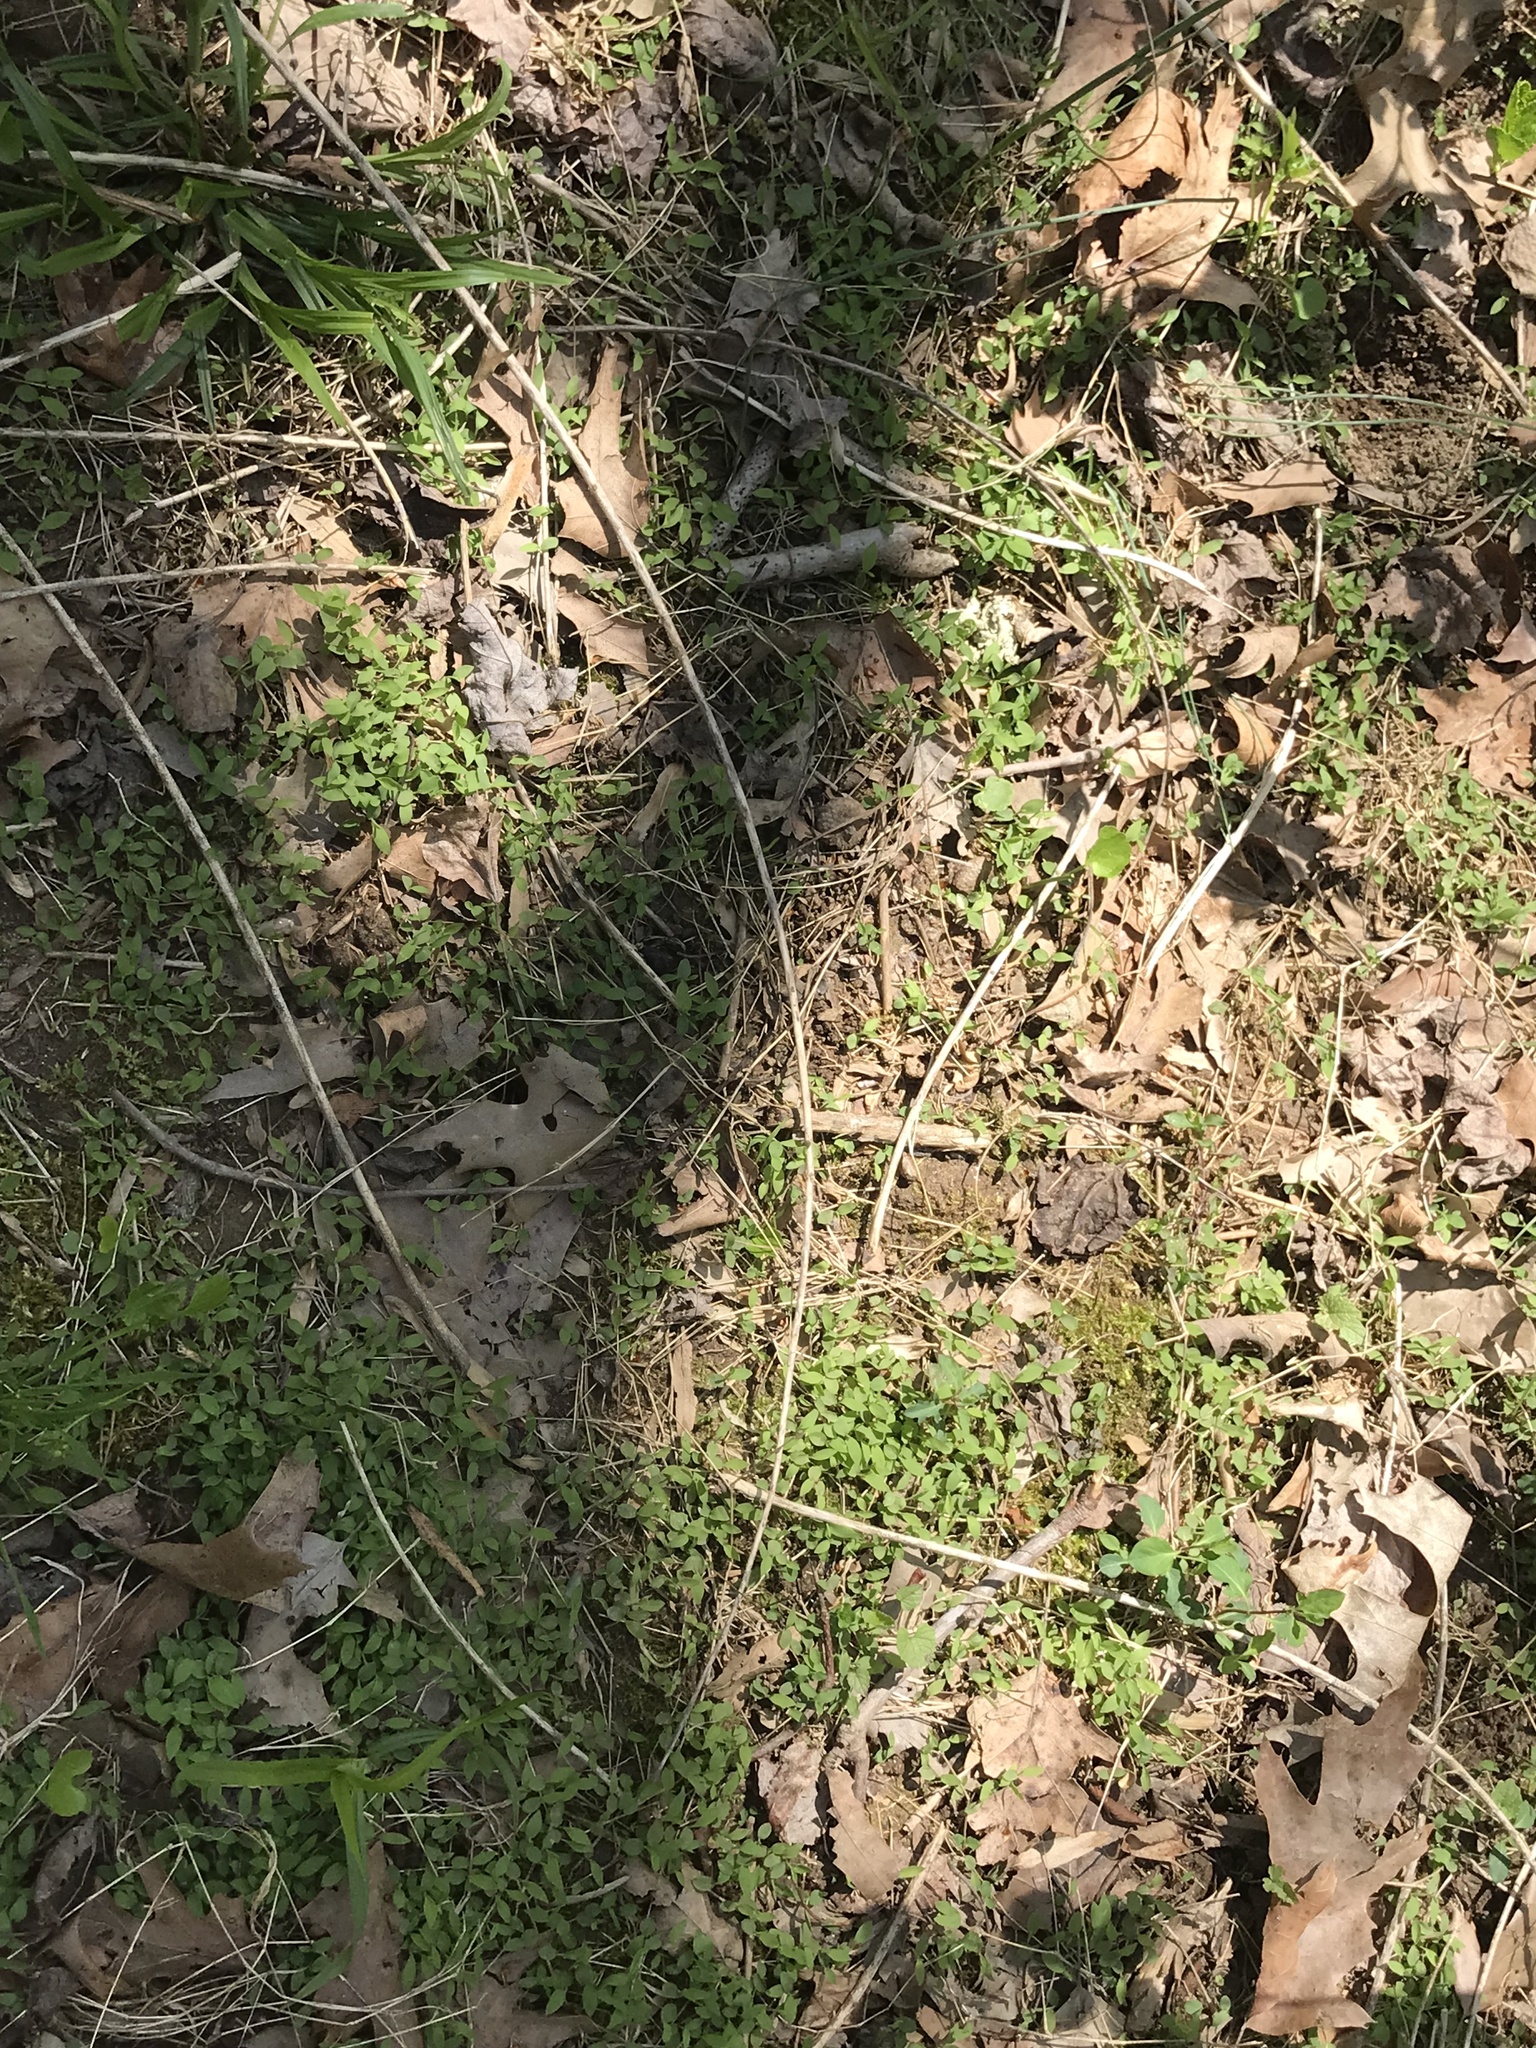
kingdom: Plantae
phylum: Tracheophyta
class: Liliopsida
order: Poales
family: Poaceae
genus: Microstegium
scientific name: Microstegium vimineum
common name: Japanese stiltgrass
